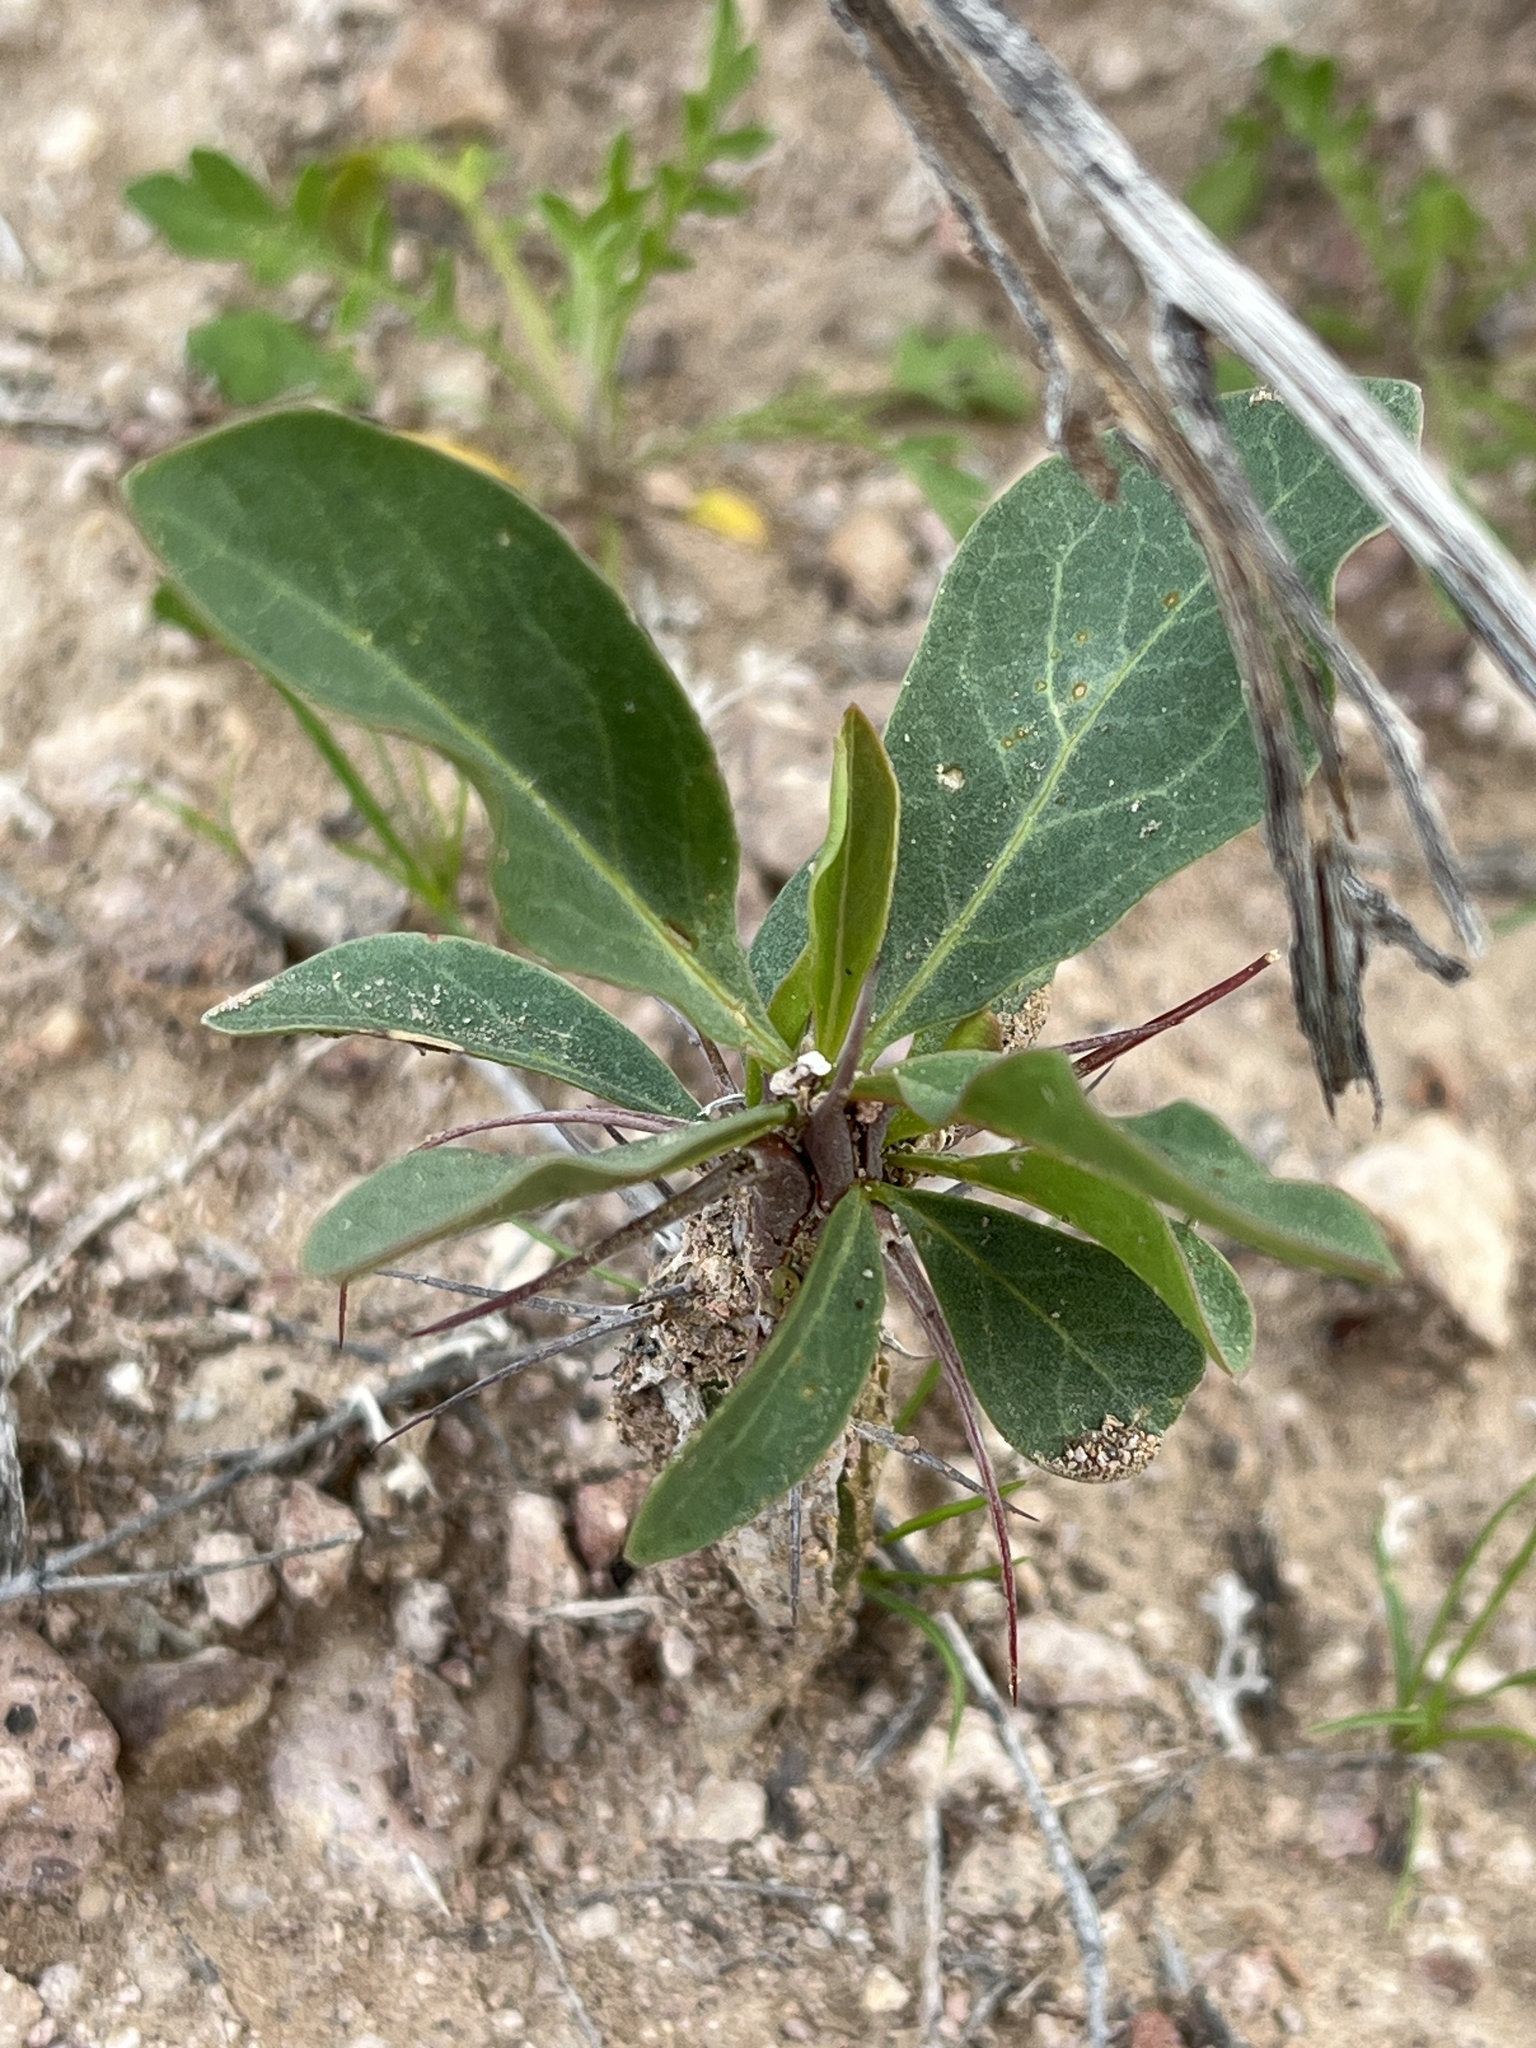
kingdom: Plantae
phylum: Tracheophyta
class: Magnoliopsida
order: Ericales
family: Fouquieriaceae
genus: Fouquieria
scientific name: Fouquieria splendens
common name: Vine-cactus
